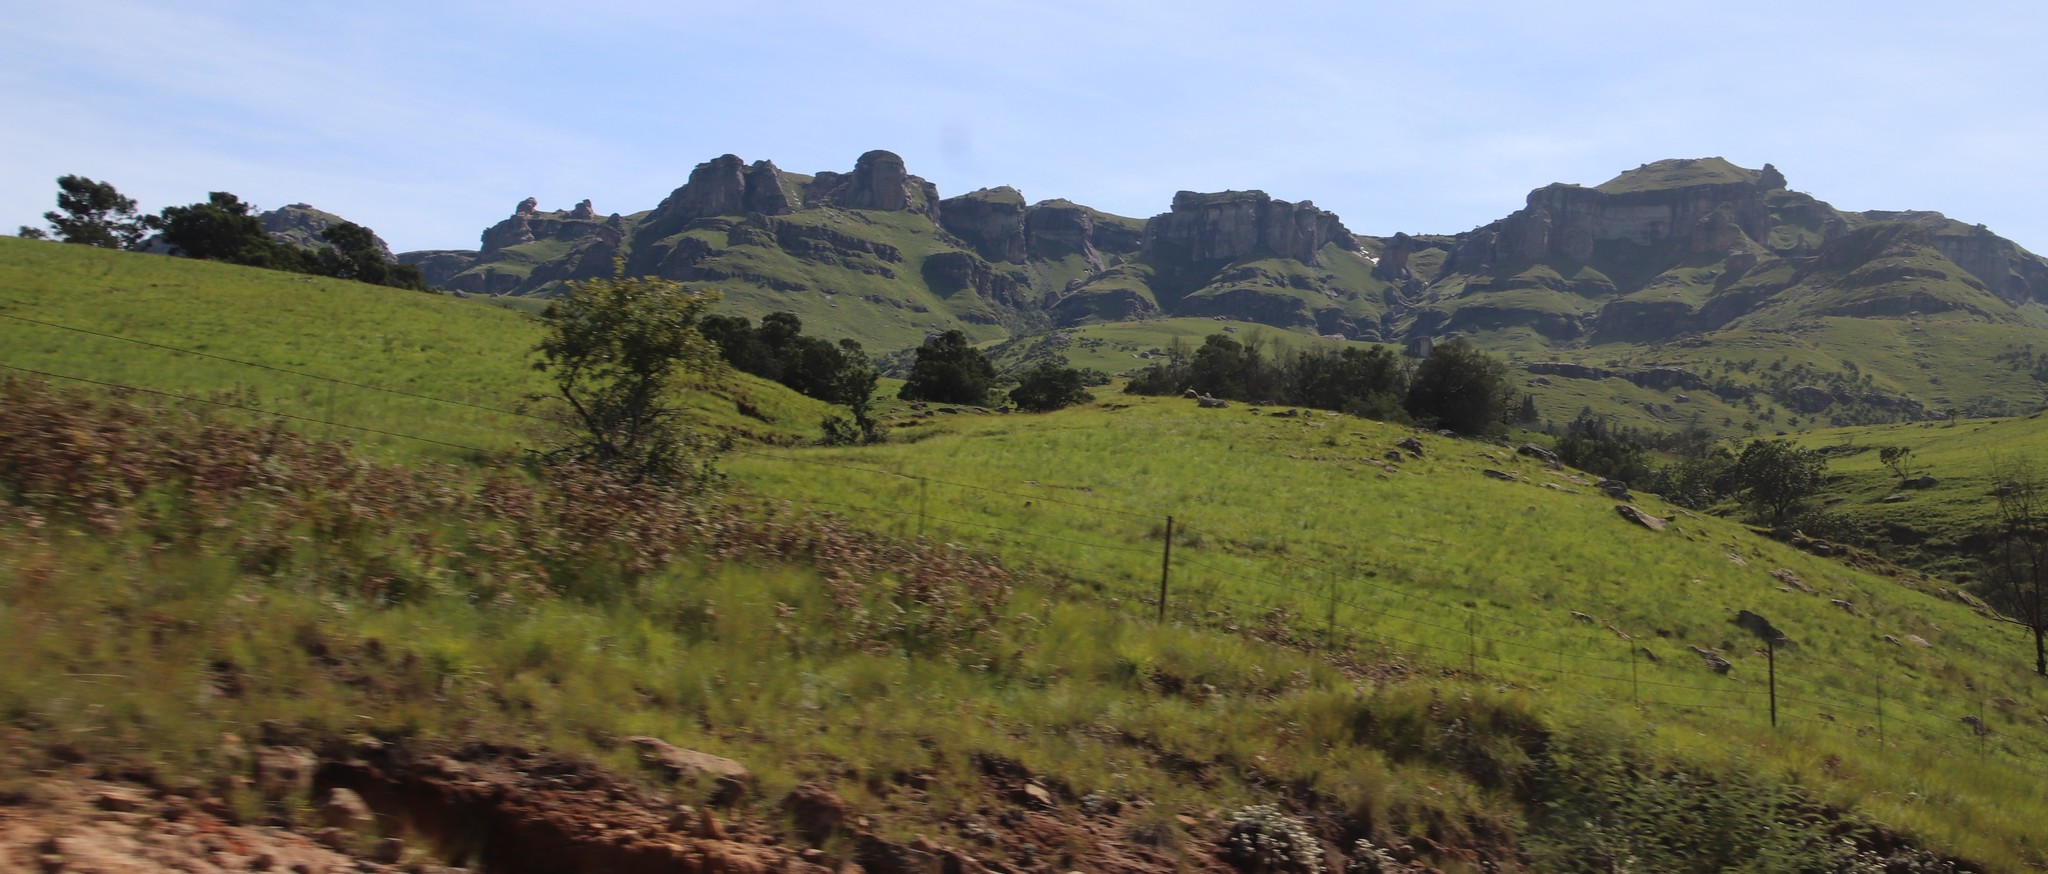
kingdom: Plantae
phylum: Tracheophyta
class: Magnoliopsida
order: Proteales
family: Proteaceae
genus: Protea
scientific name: Protea roupelliae
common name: Silver sugarbush
